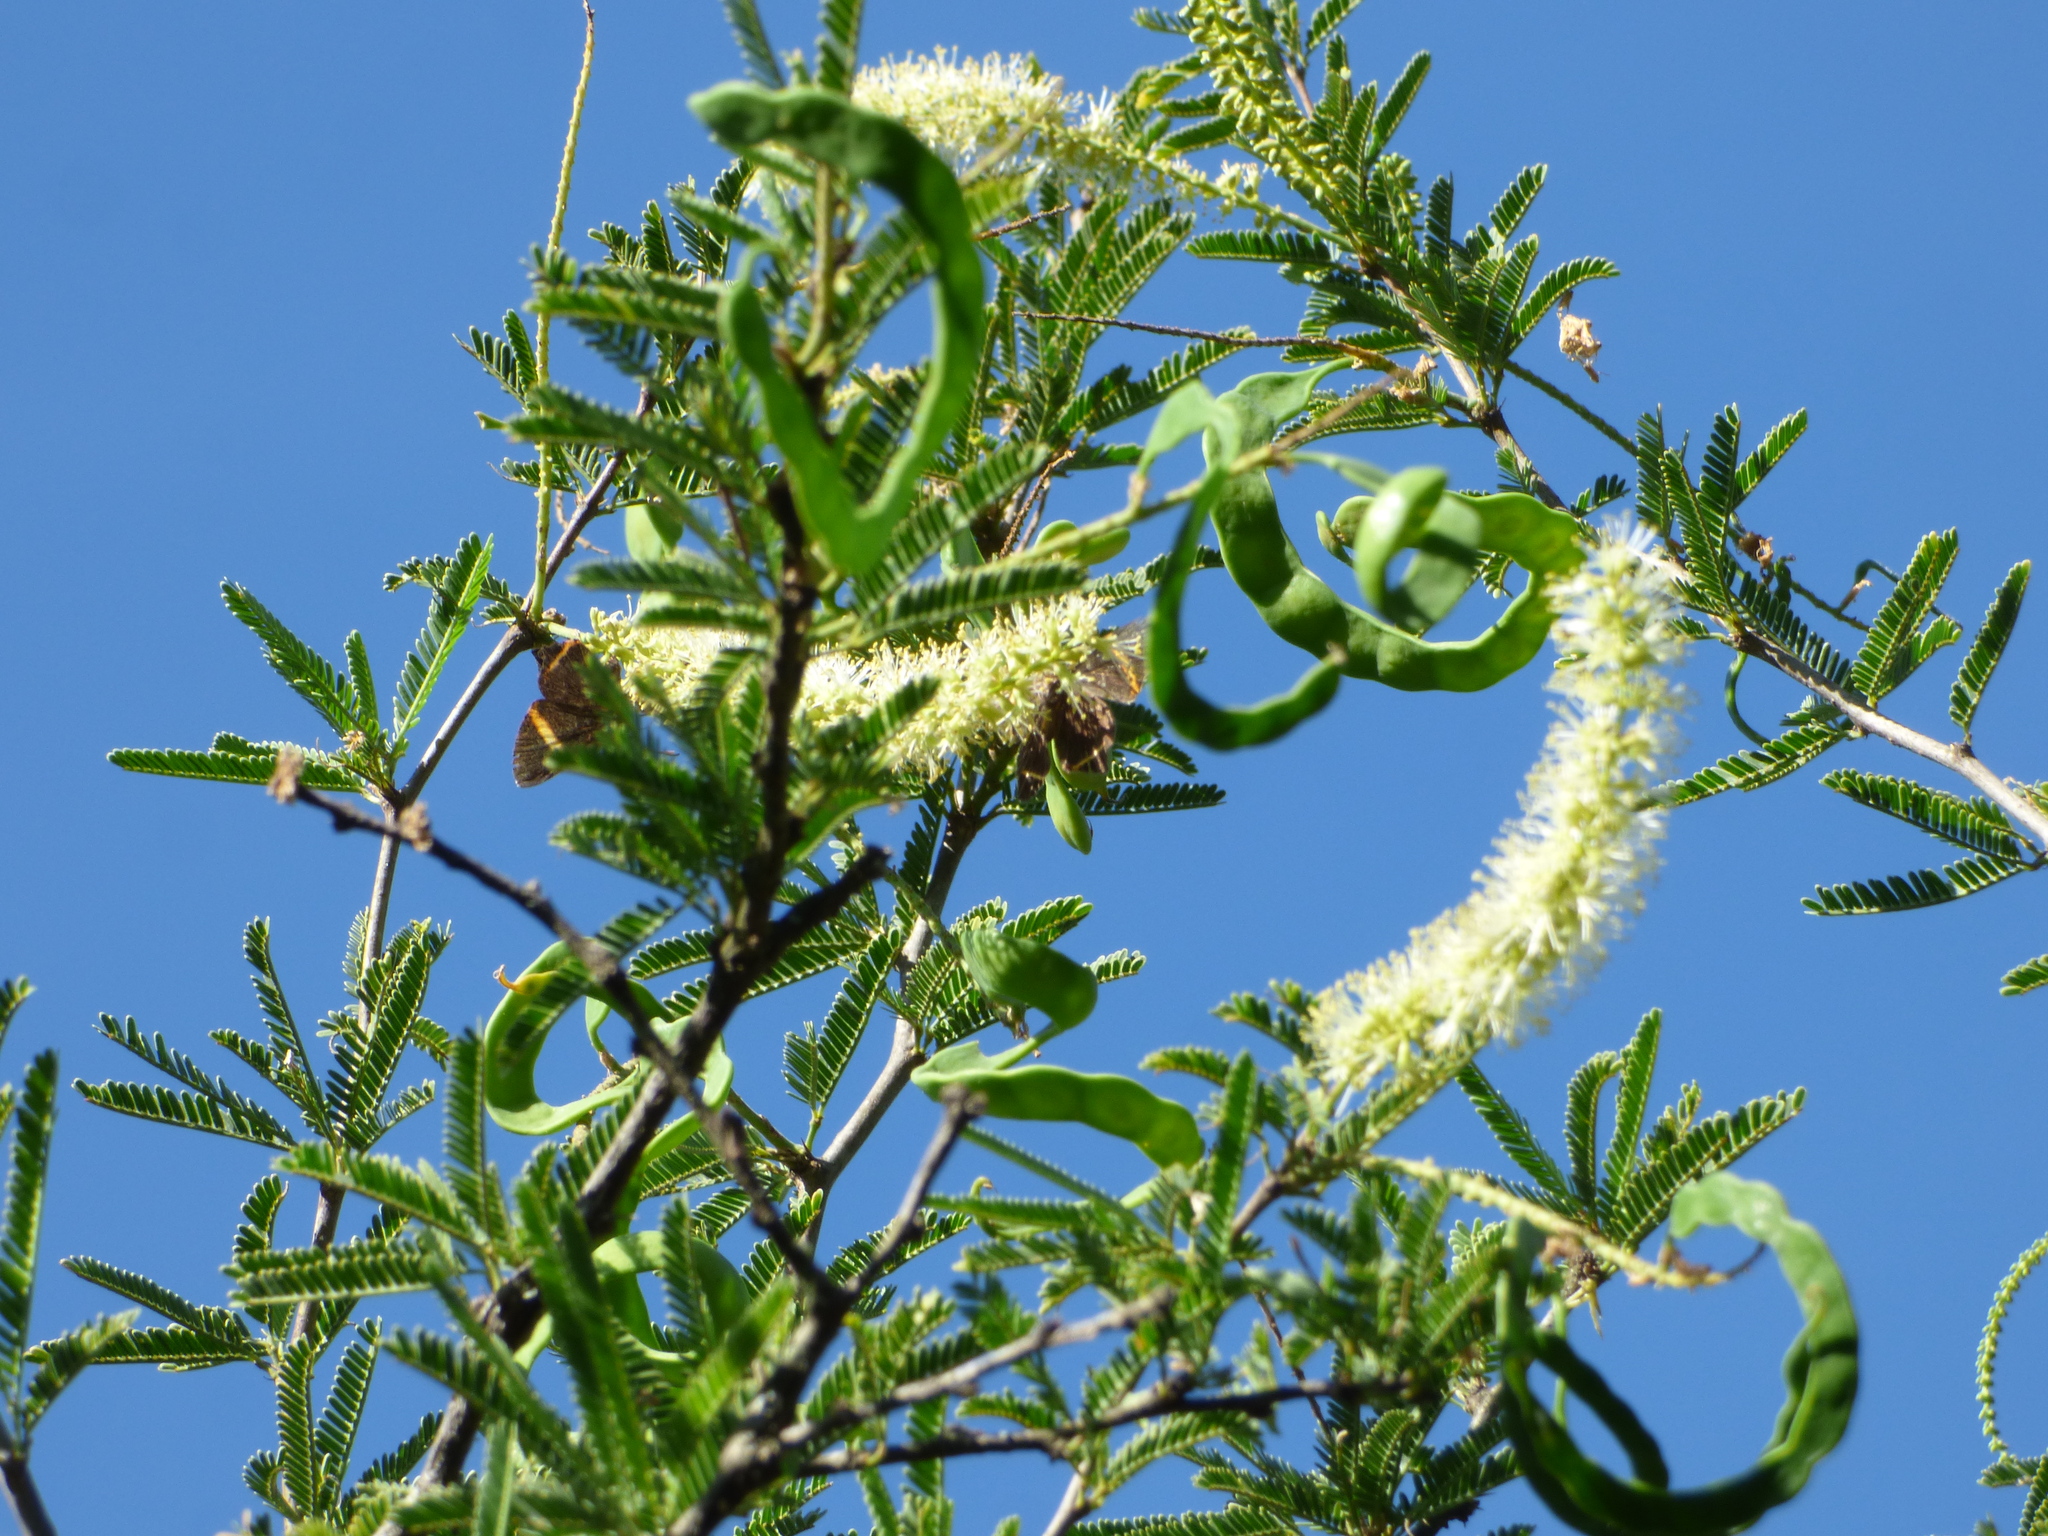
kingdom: Animalia
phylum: Arthropoda
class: Insecta
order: Lepidoptera
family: Riodinidae
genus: Riodina
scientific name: Riodina lysippoides
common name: Little dancer metalmark
